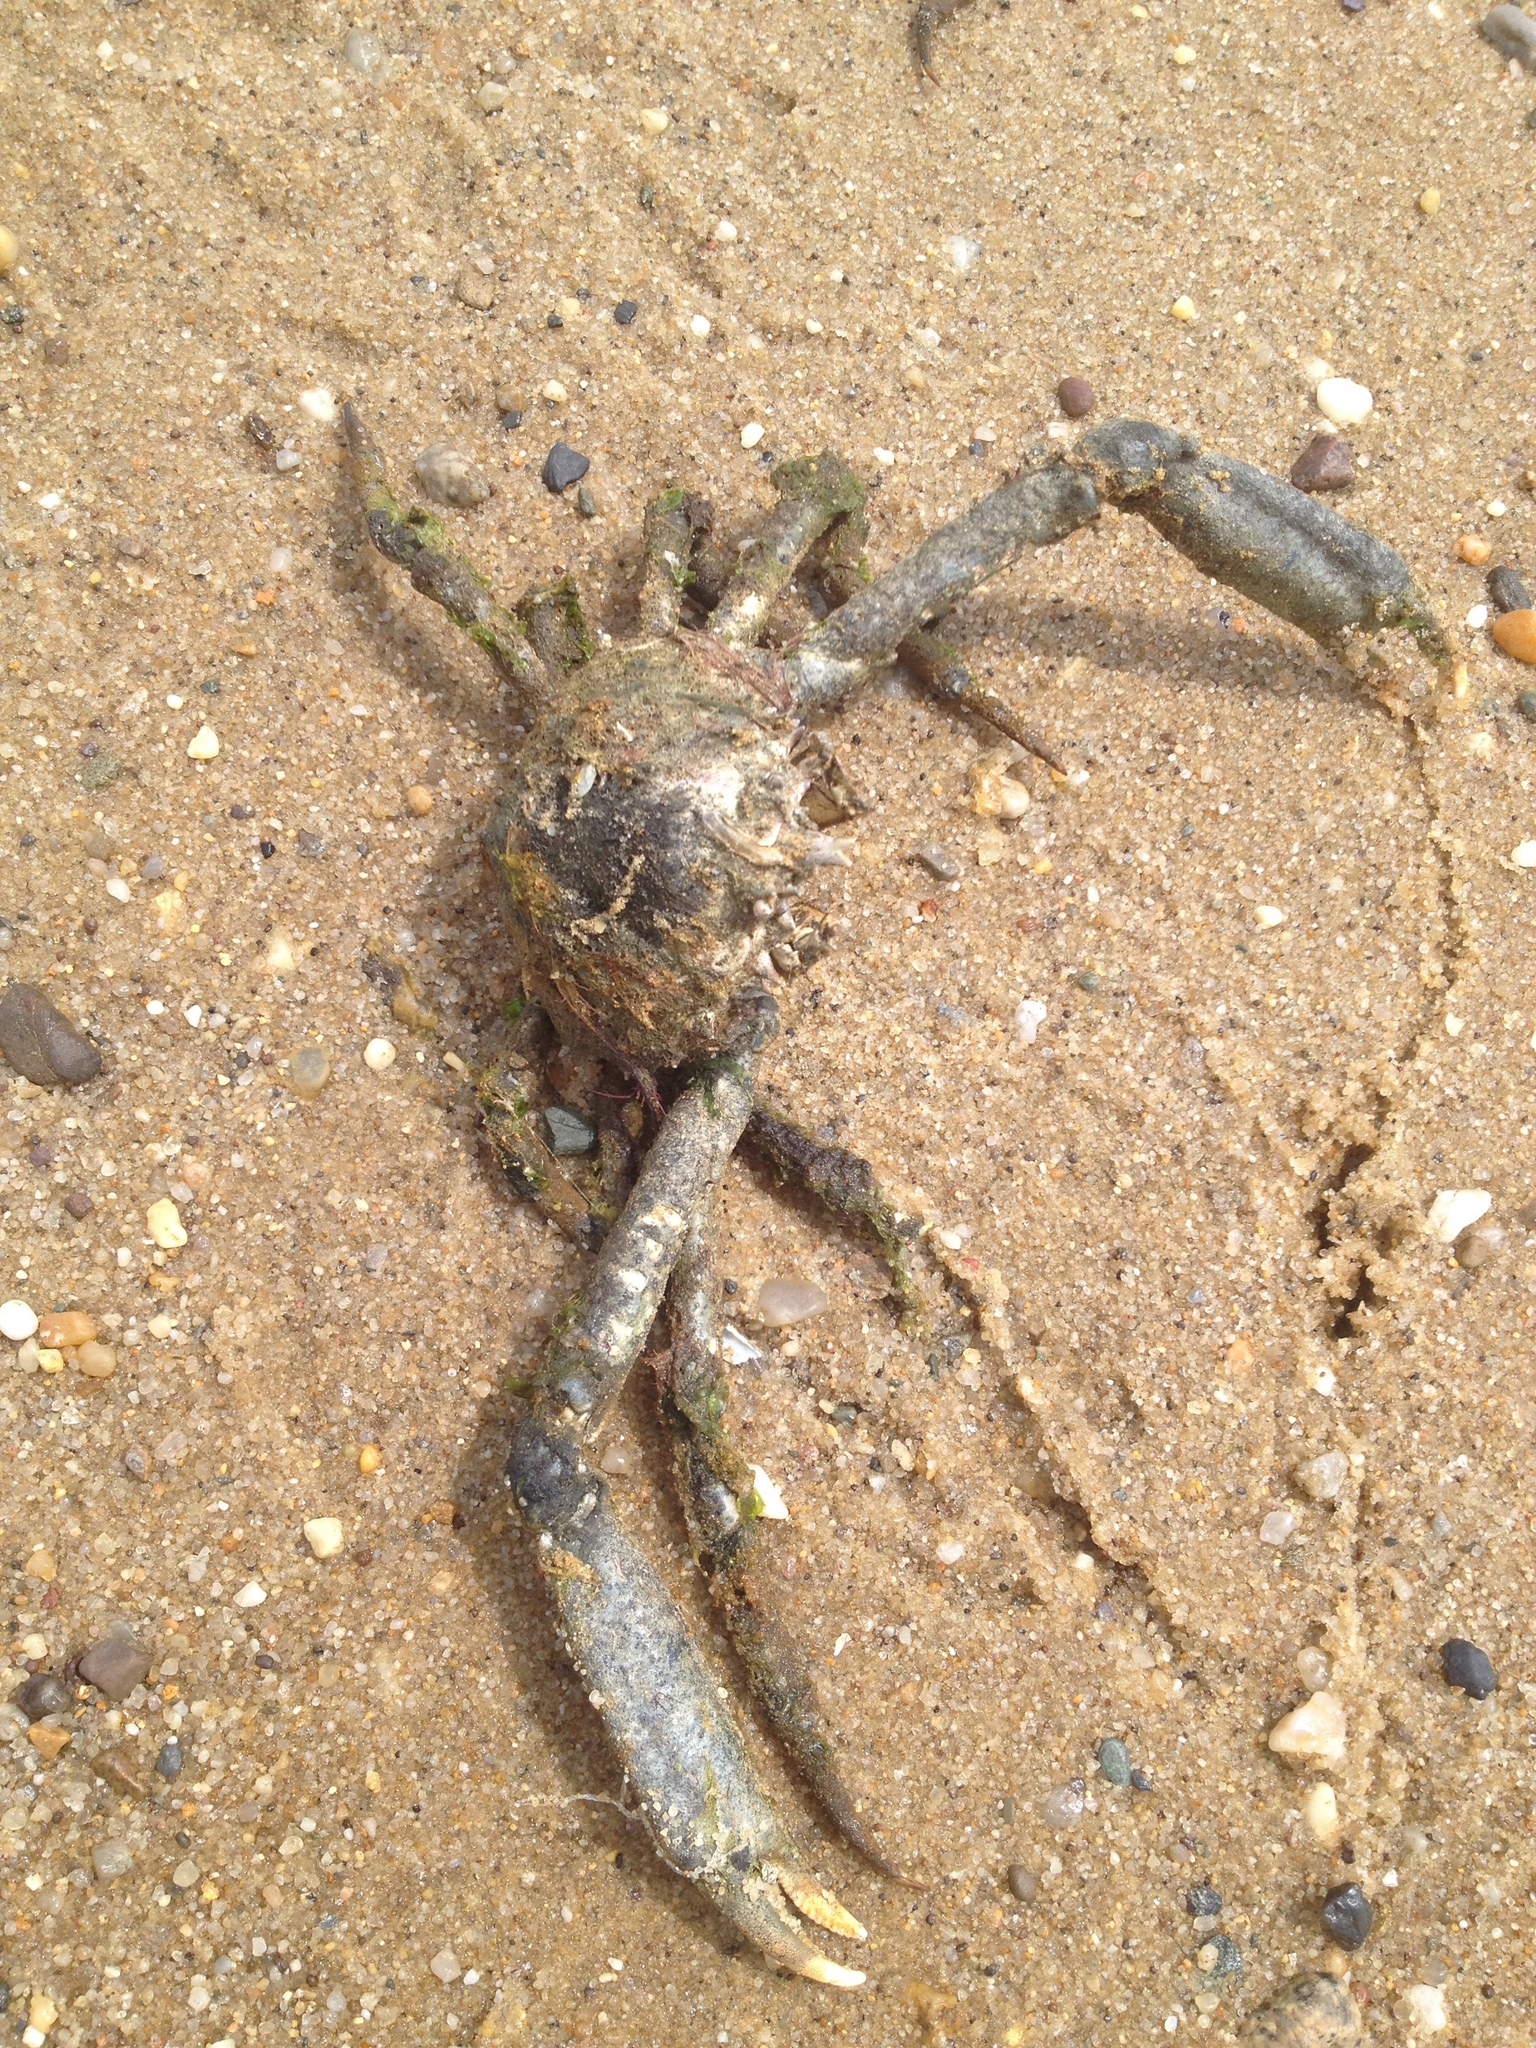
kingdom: Animalia
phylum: Arthropoda
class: Malacostraca
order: Decapoda
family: Epialtidae
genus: Libinia
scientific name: Libinia
